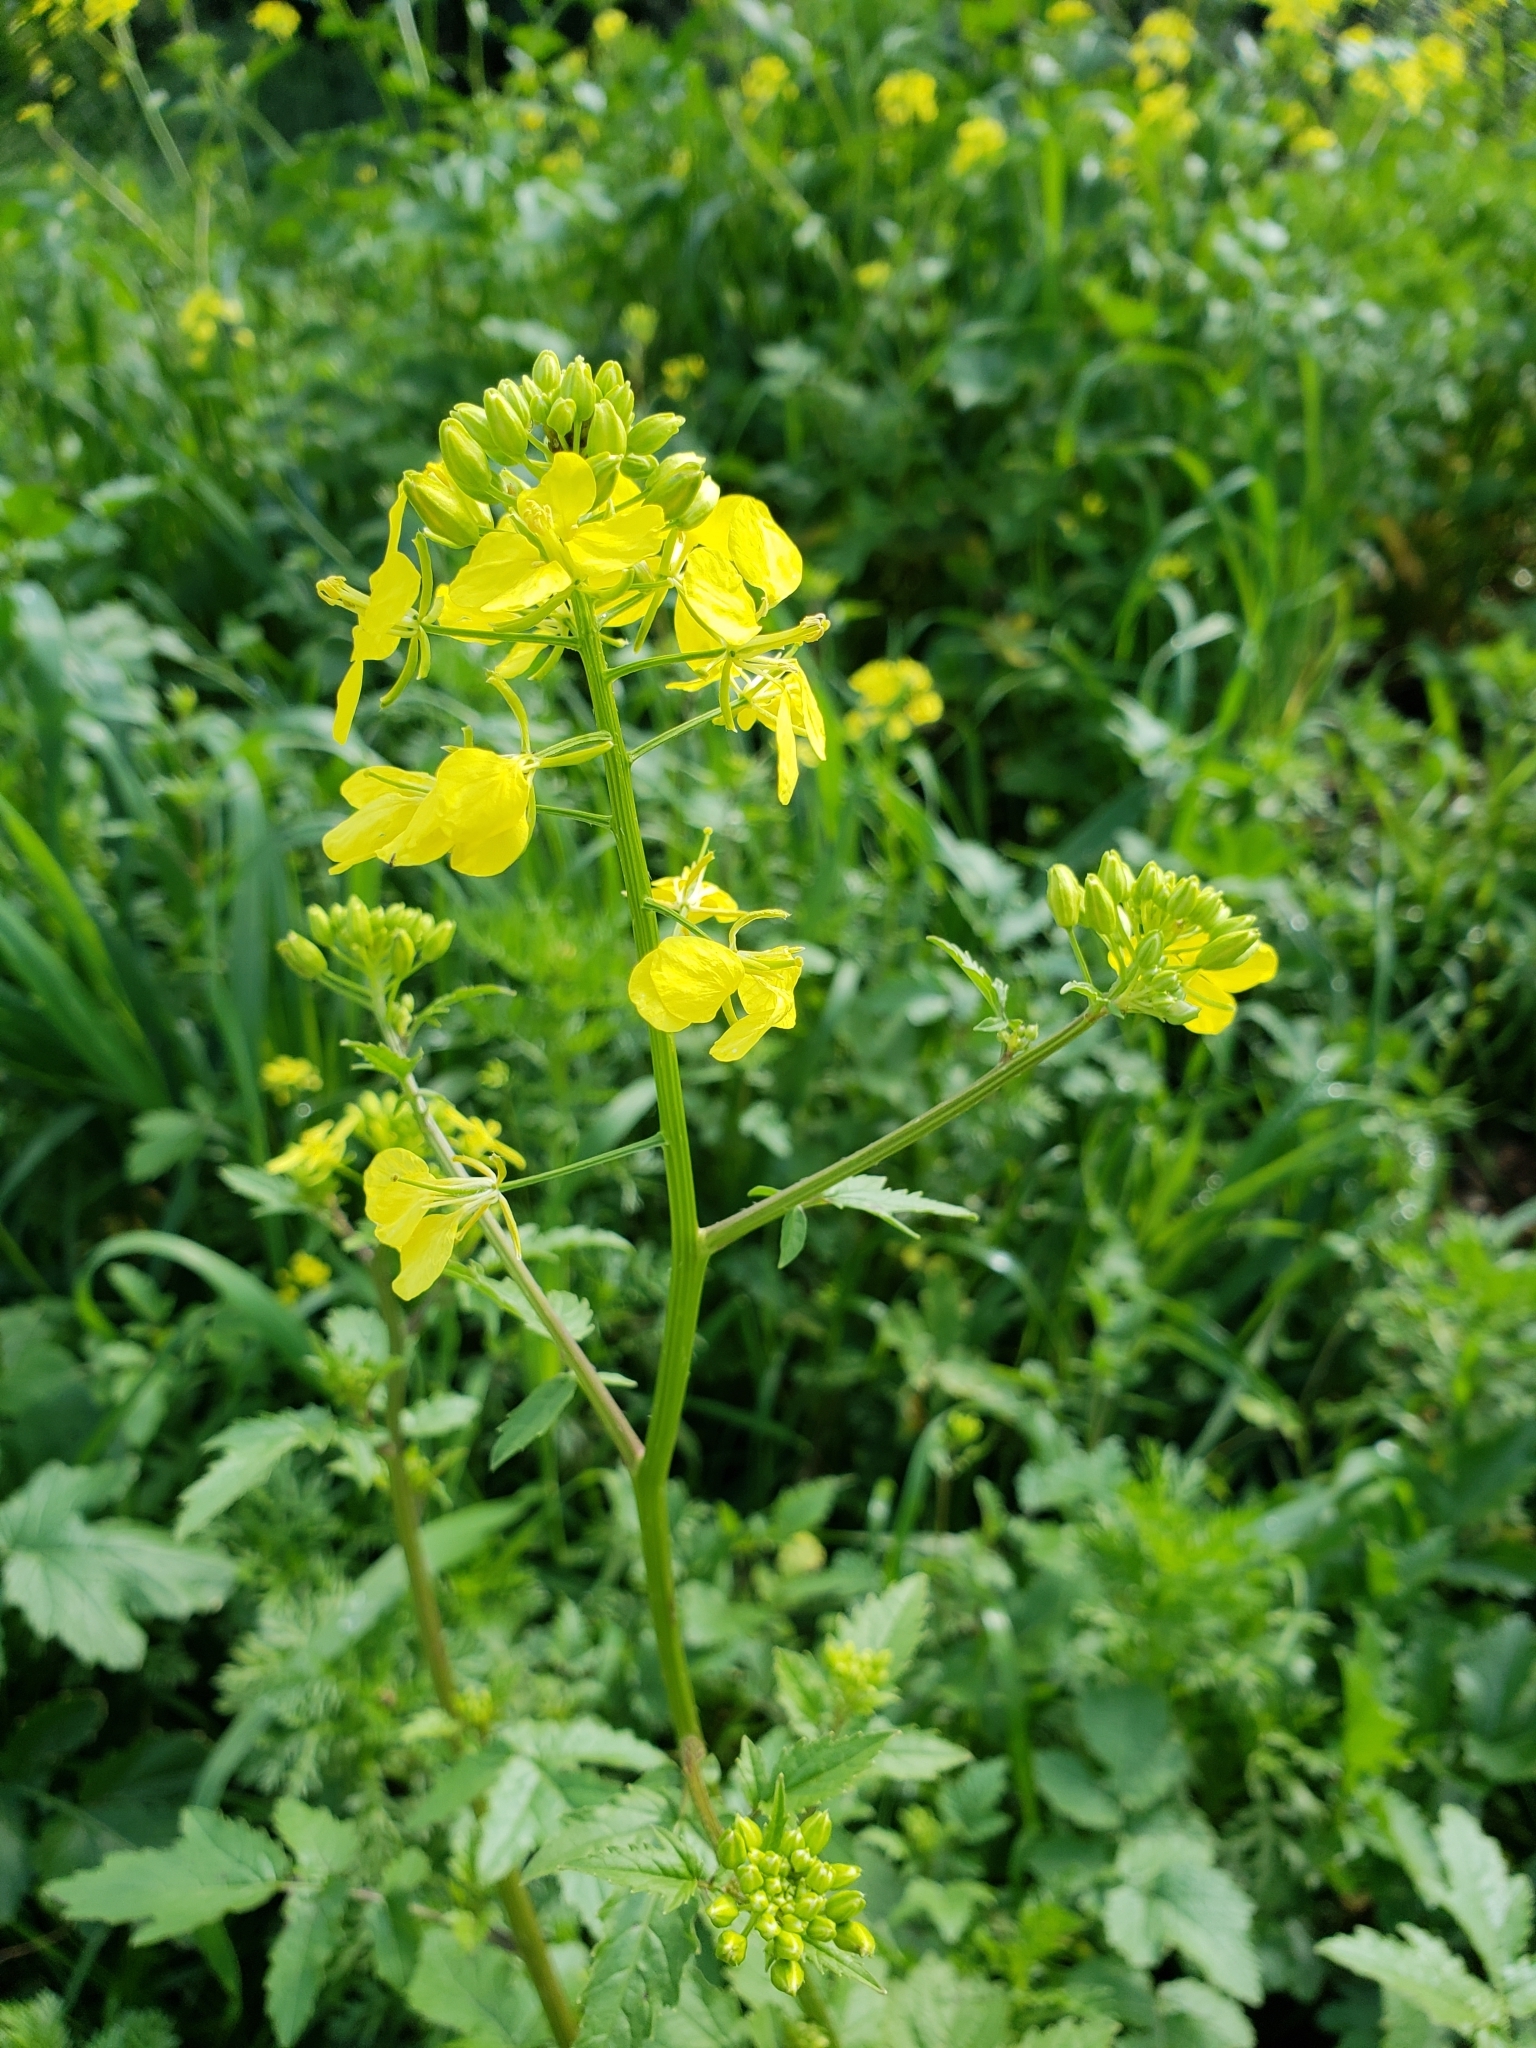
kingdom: Plantae
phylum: Tracheophyta
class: Magnoliopsida
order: Brassicales
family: Brassicaceae
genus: Sinapis
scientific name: Sinapis alba
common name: White mustard
